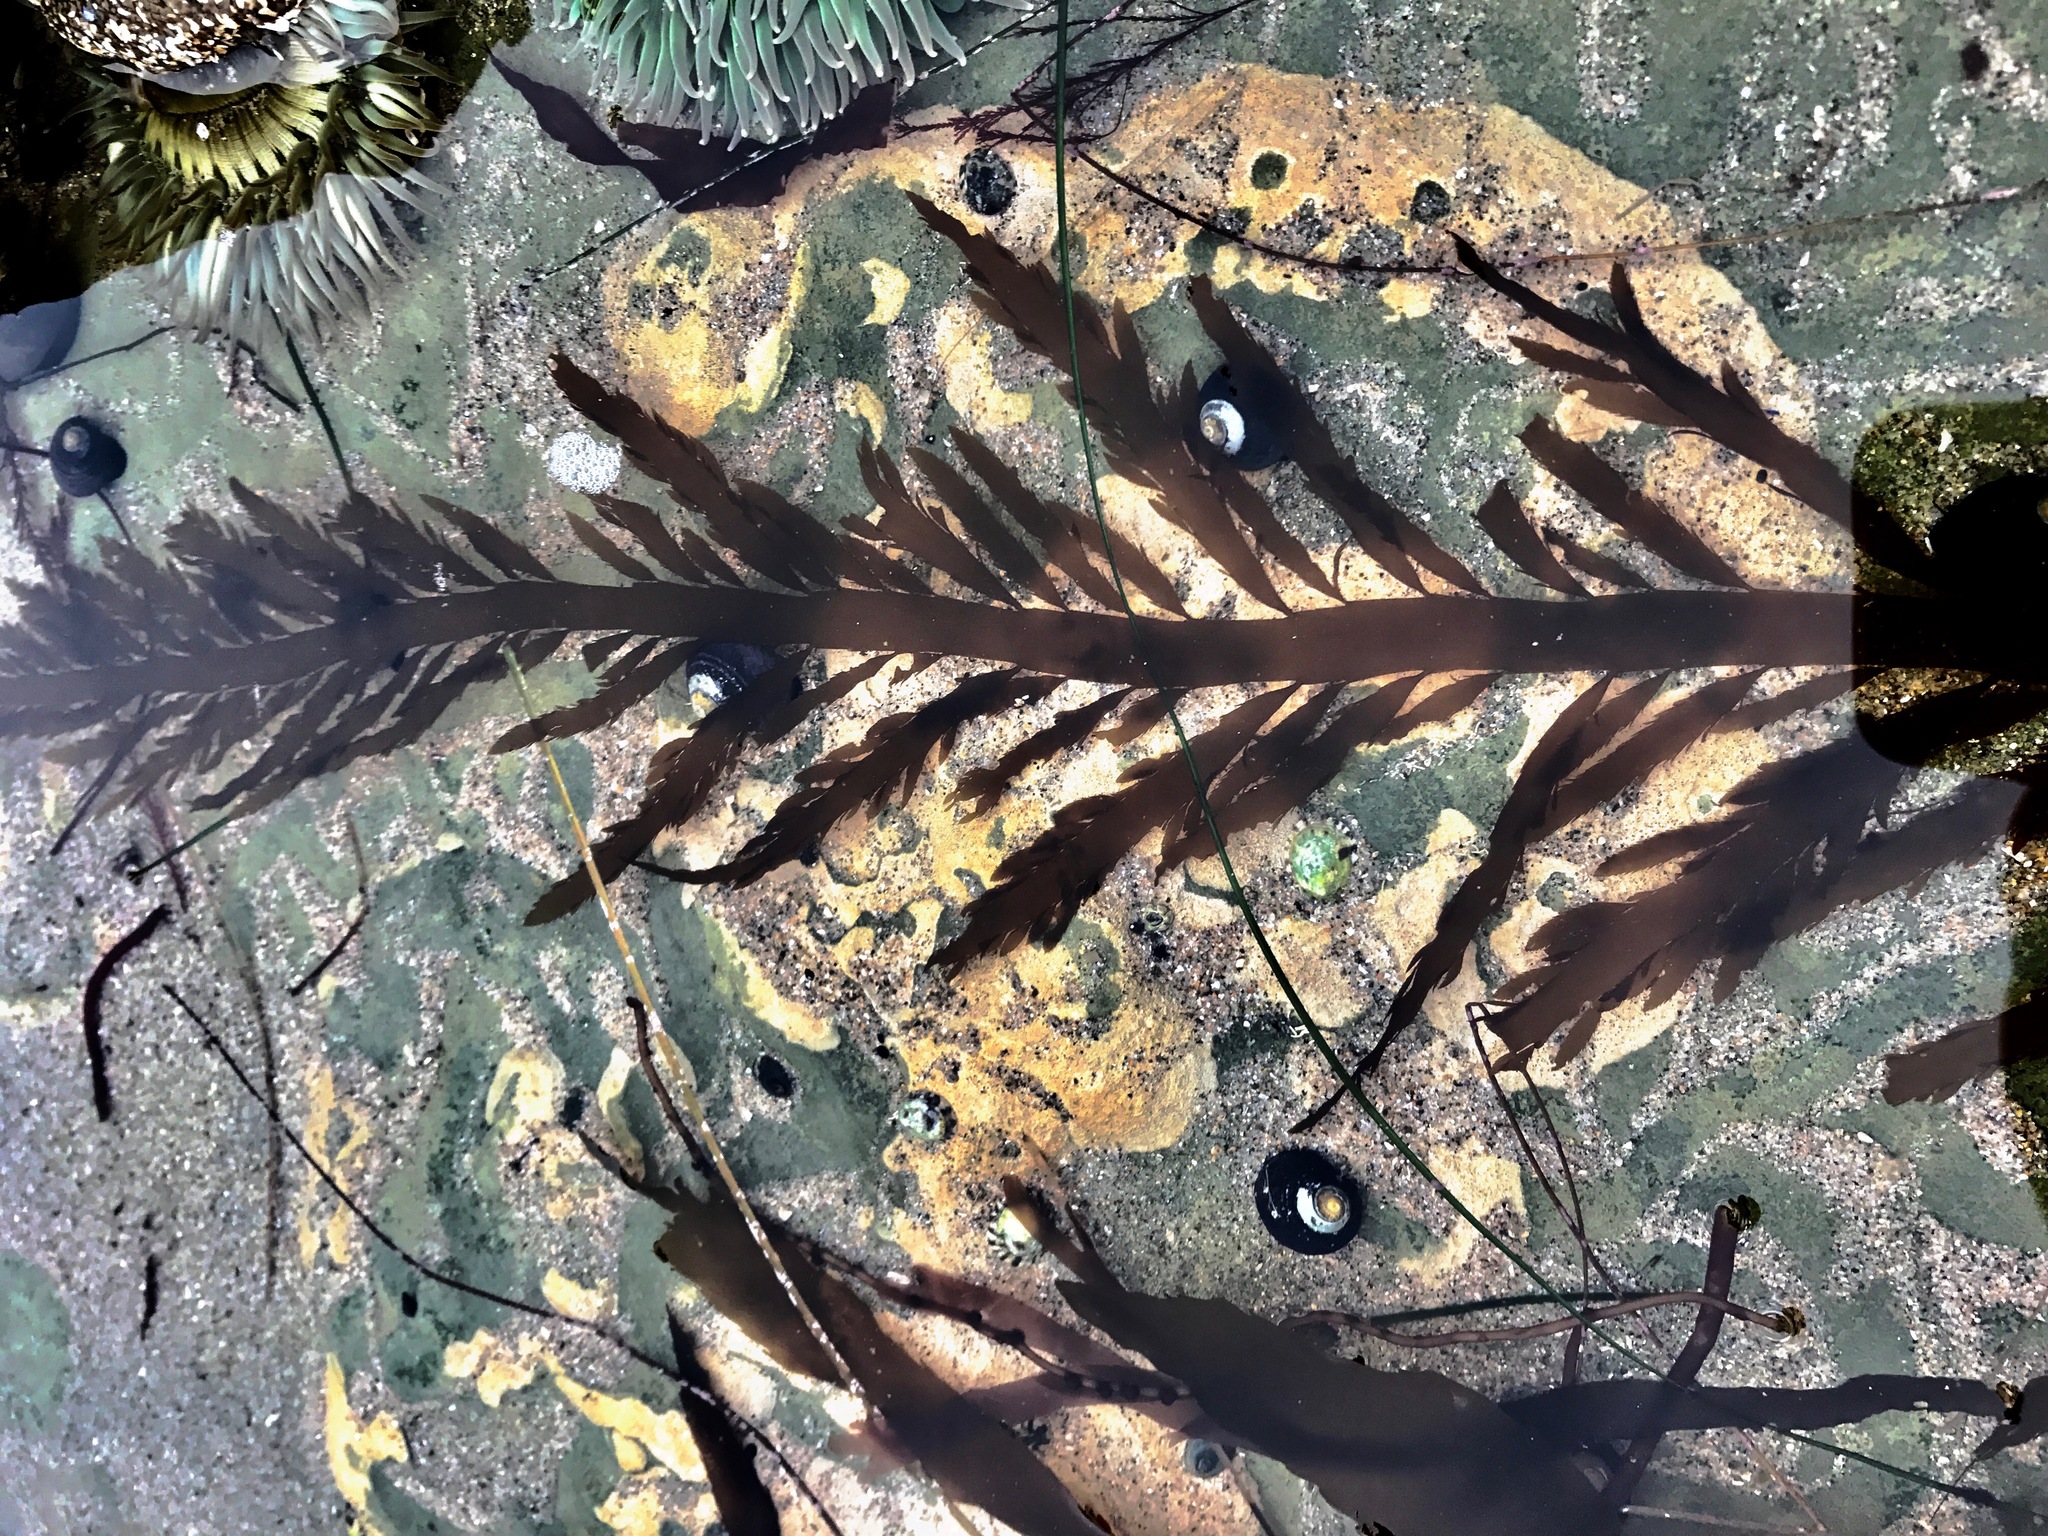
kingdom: Chromista
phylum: Ochrophyta
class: Phaeophyceae
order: Desmarestiales
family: Desmarestiaceae
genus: Desmarestia
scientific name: Desmarestia ligulata
